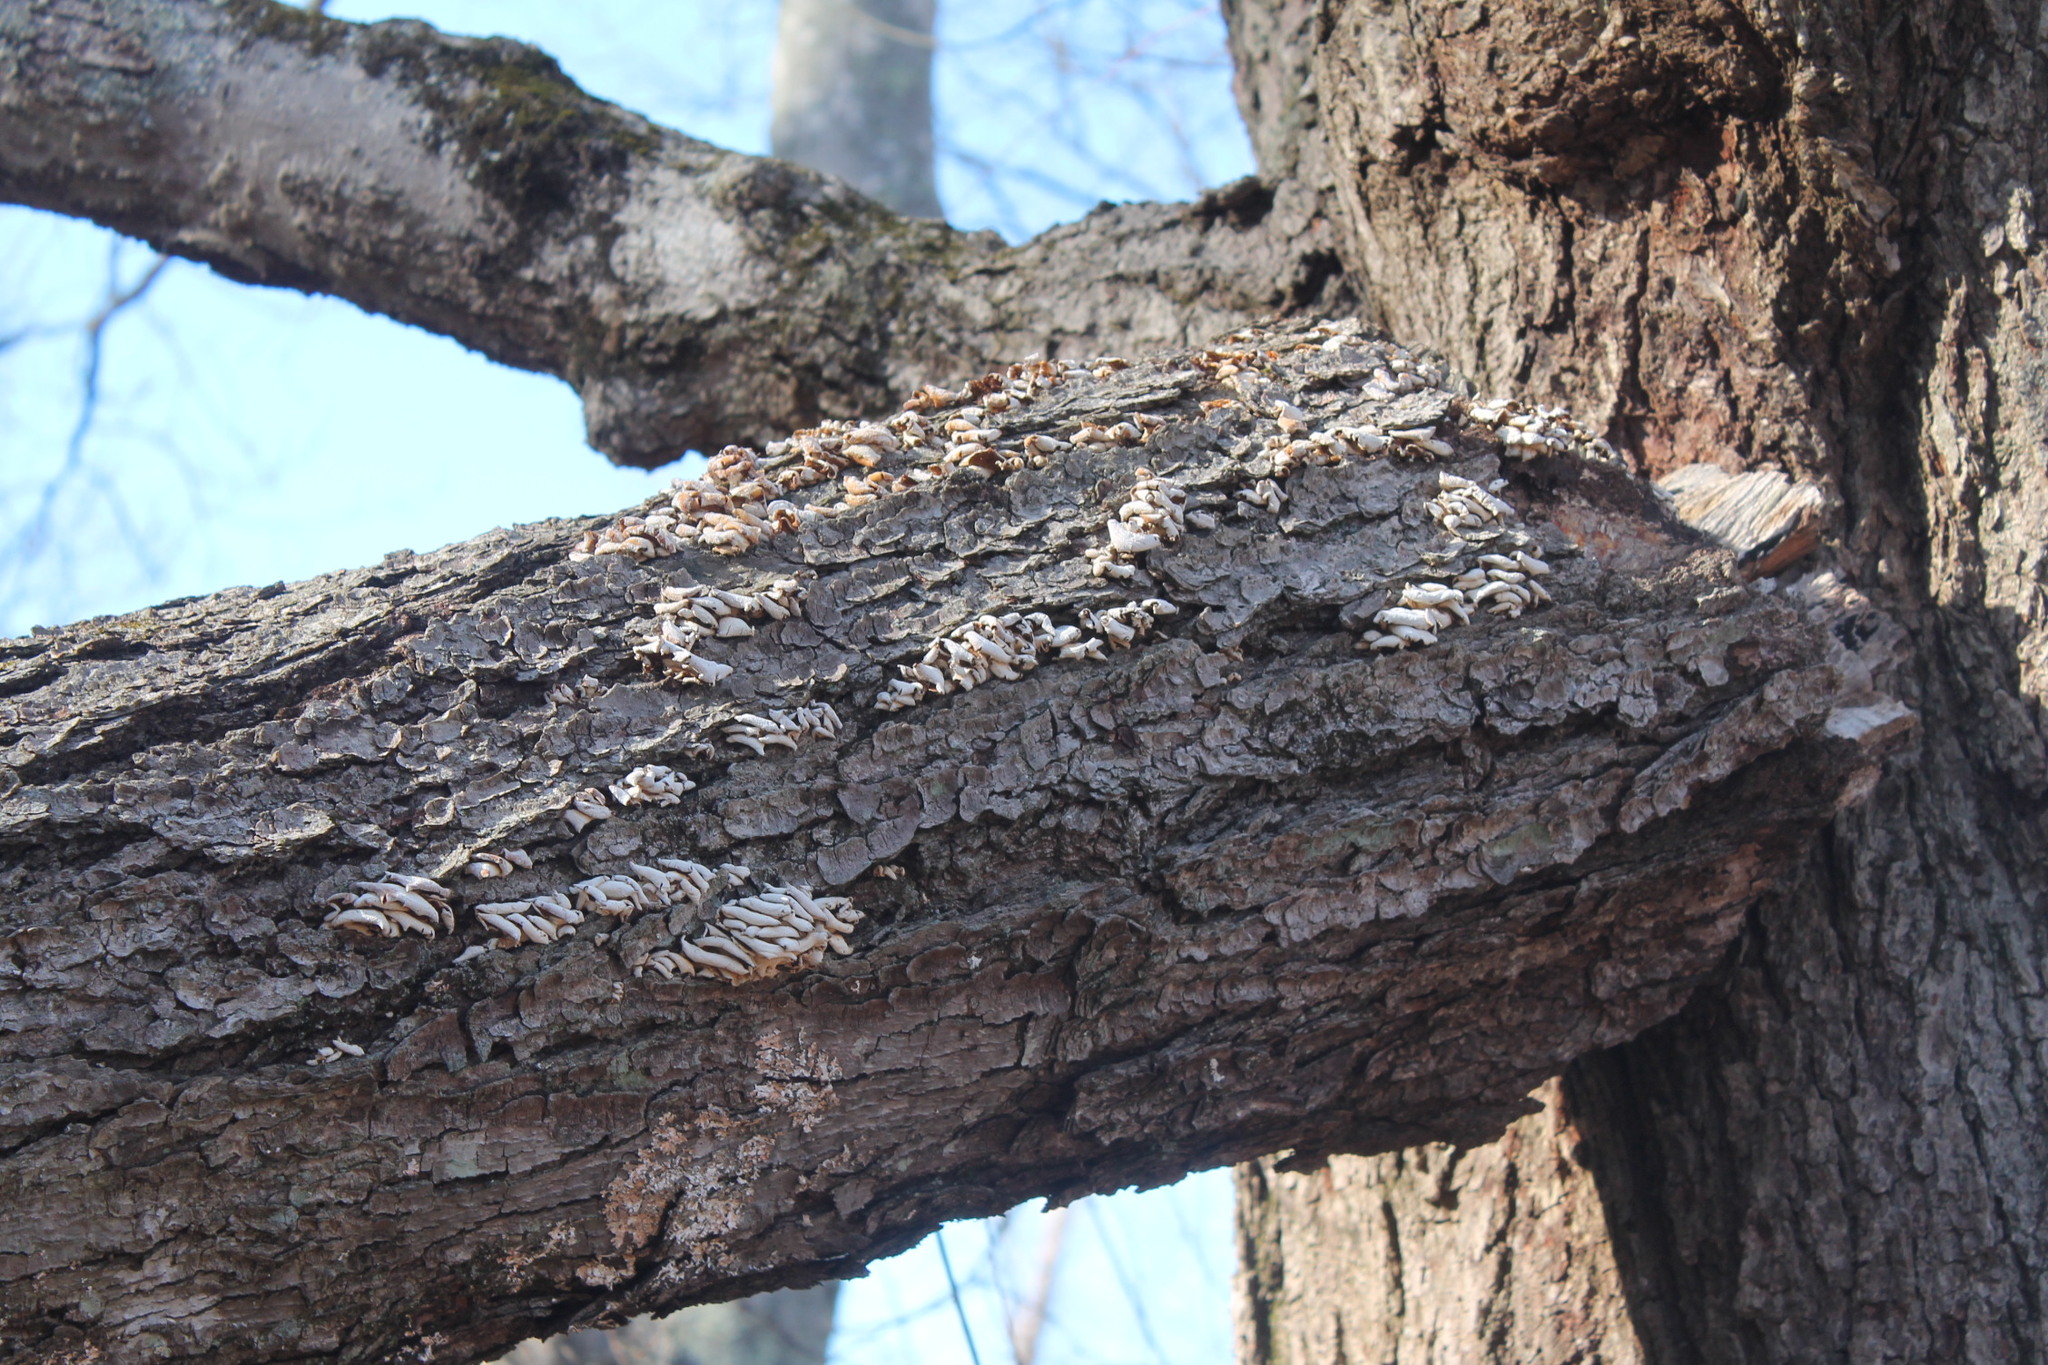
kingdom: Fungi
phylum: Basidiomycota
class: Agaricomycetes
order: Agaricales
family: Mycenaceae
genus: Panellus
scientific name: Panellus stipticus
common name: Bitter oysterling
